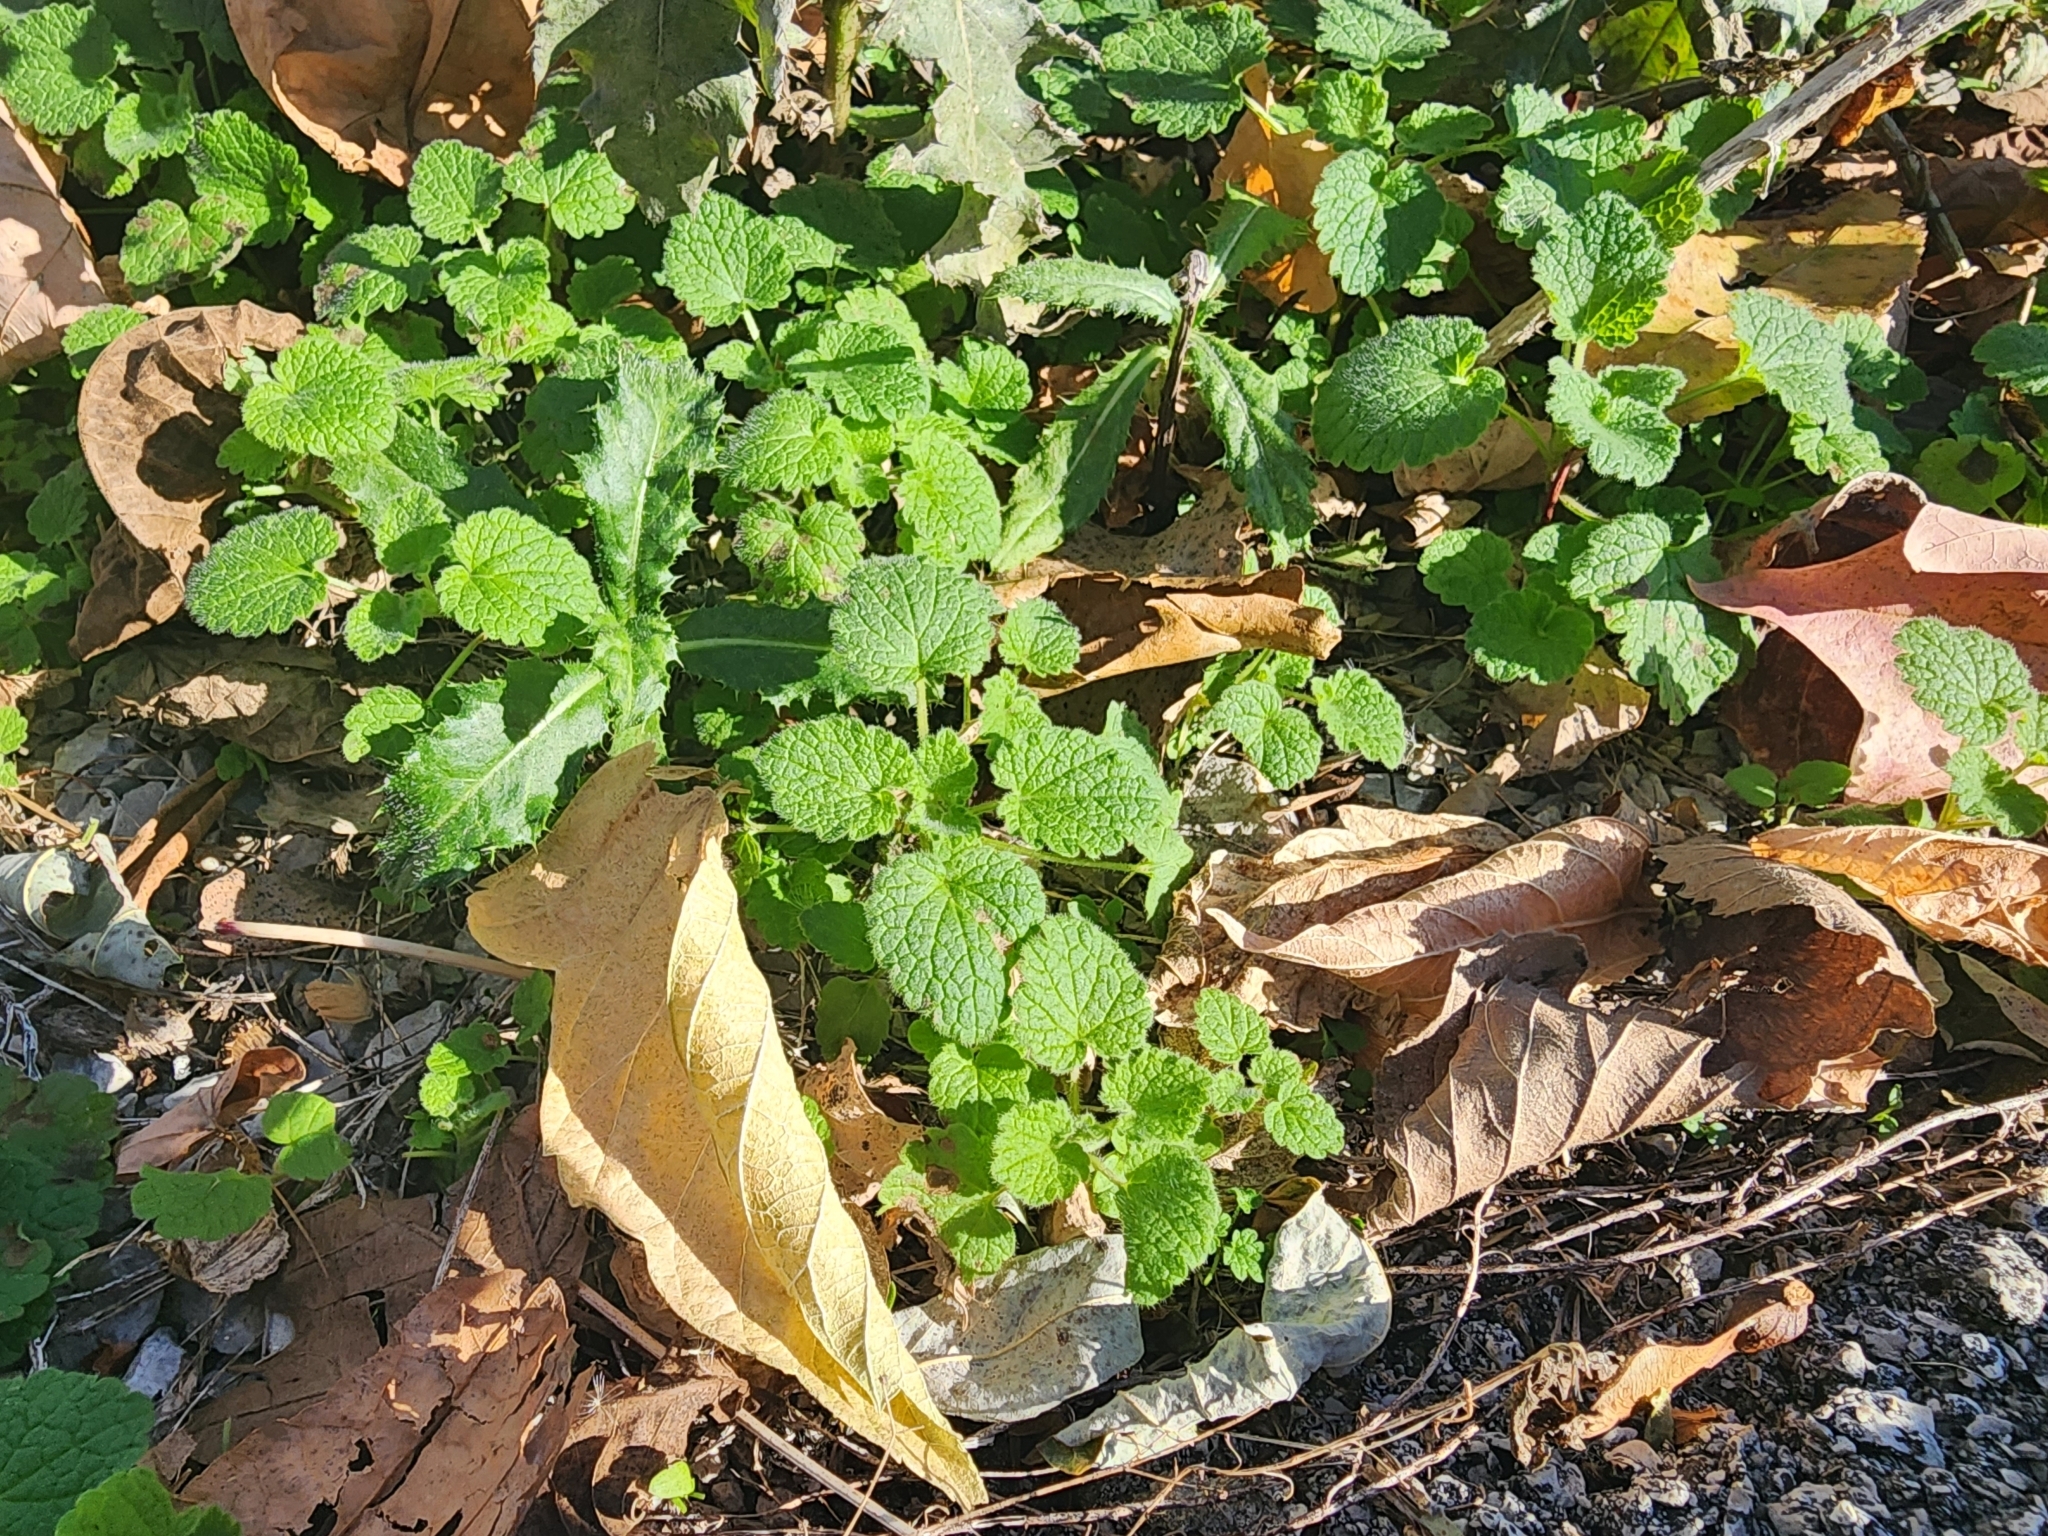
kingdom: Plantae
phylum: Tracheophyta
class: Magnoliopsida
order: Lamiales
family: Lamiaceae
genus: Lamium
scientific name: Lamium purpureum
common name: Red dead-nettle
